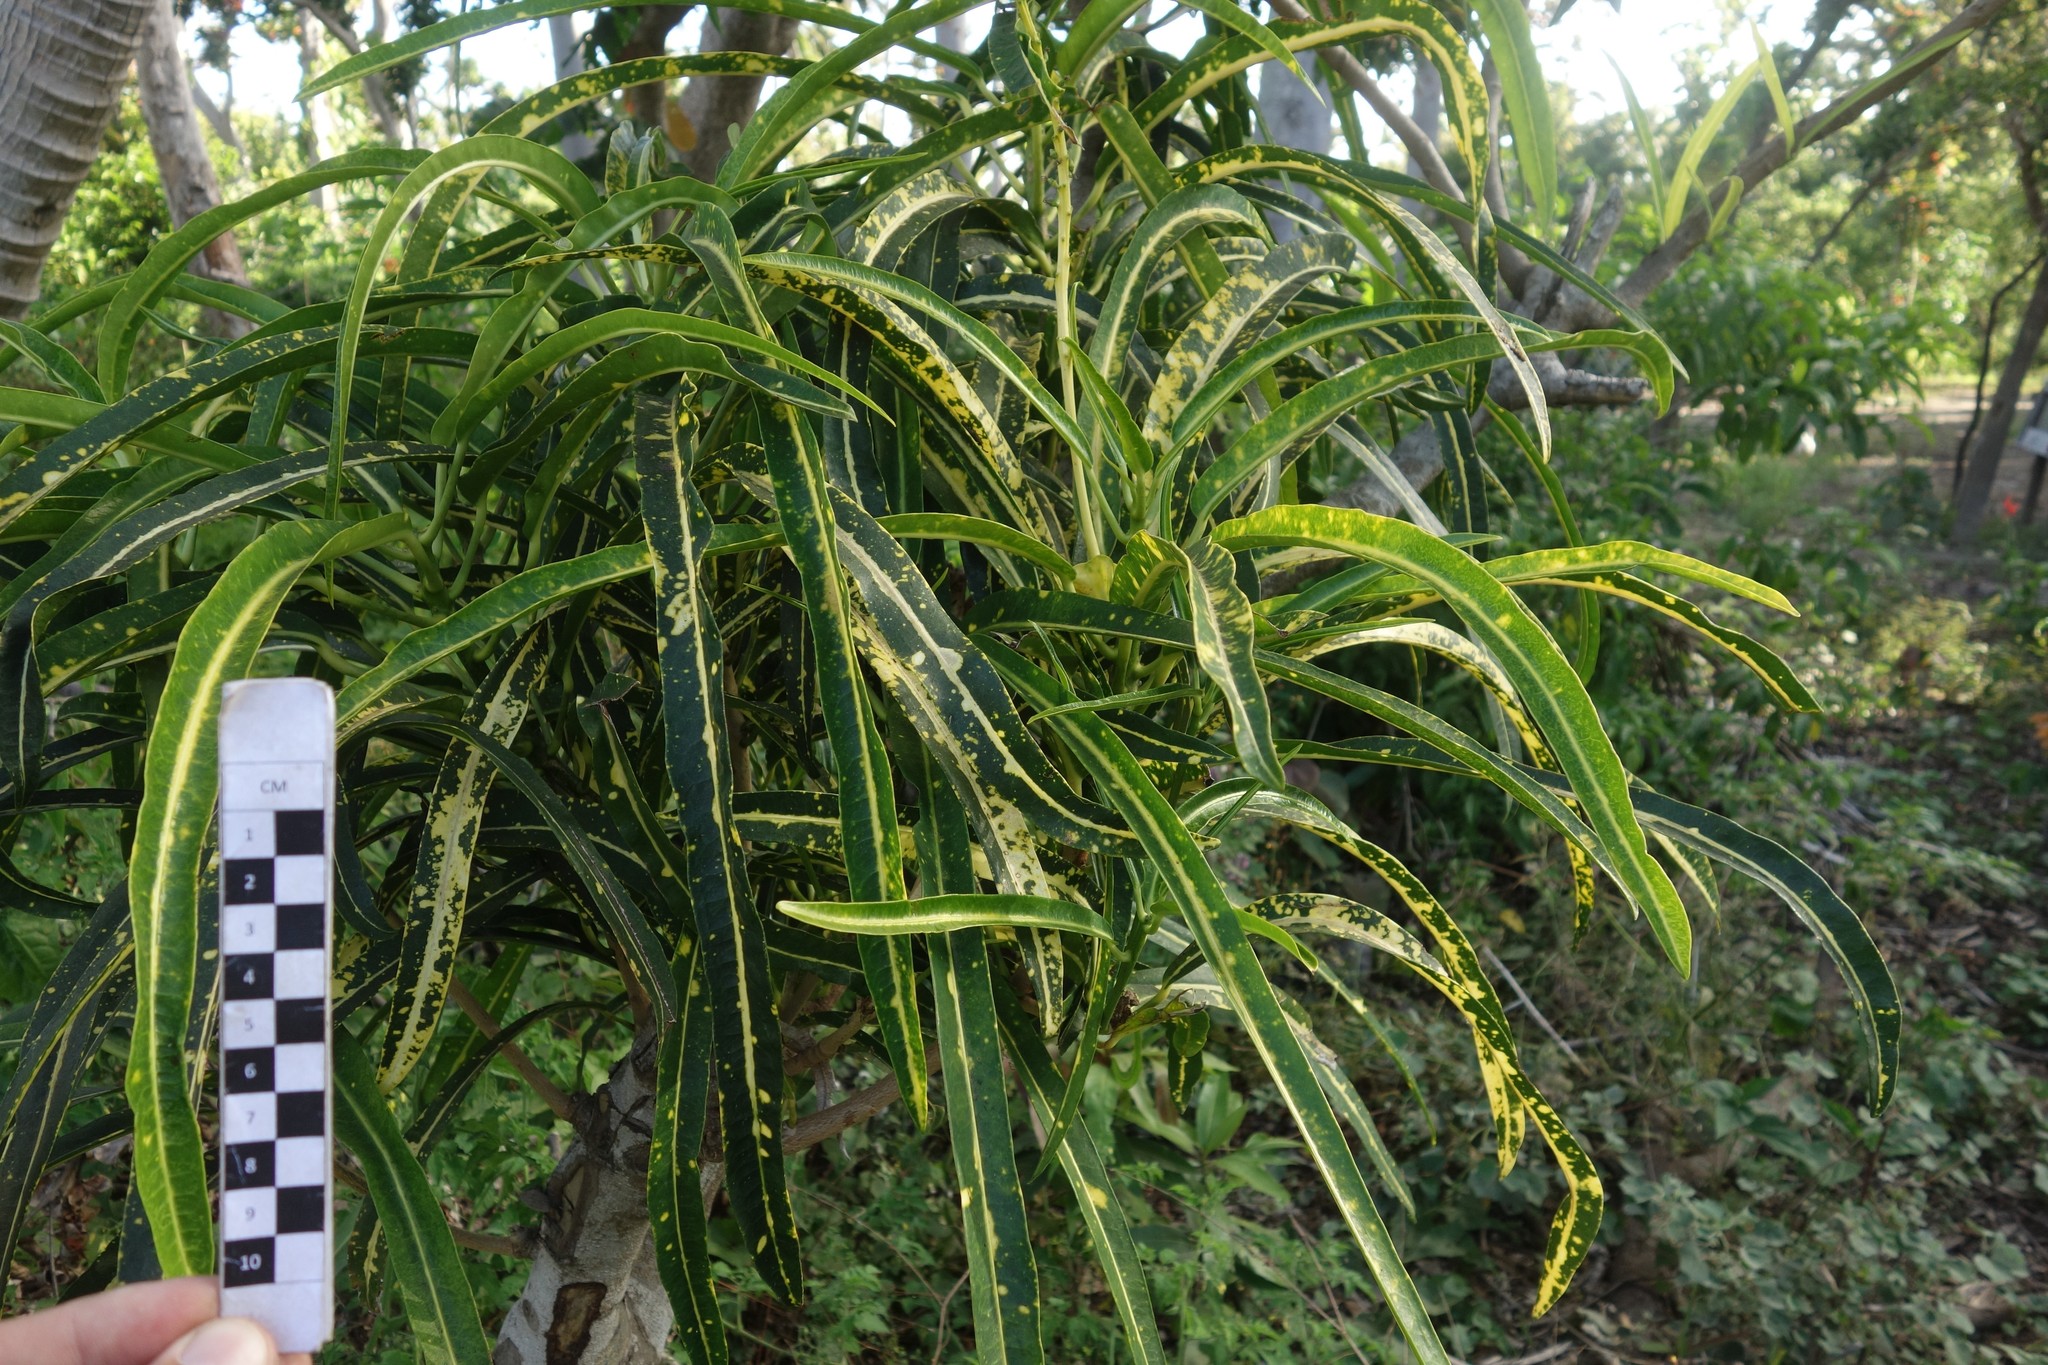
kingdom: Plantae
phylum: Tracheophyta
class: Magnoliopsida
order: Malpighiales
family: Euphorbiaceae
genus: Codiaeum
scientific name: Codiaeum variegatum
